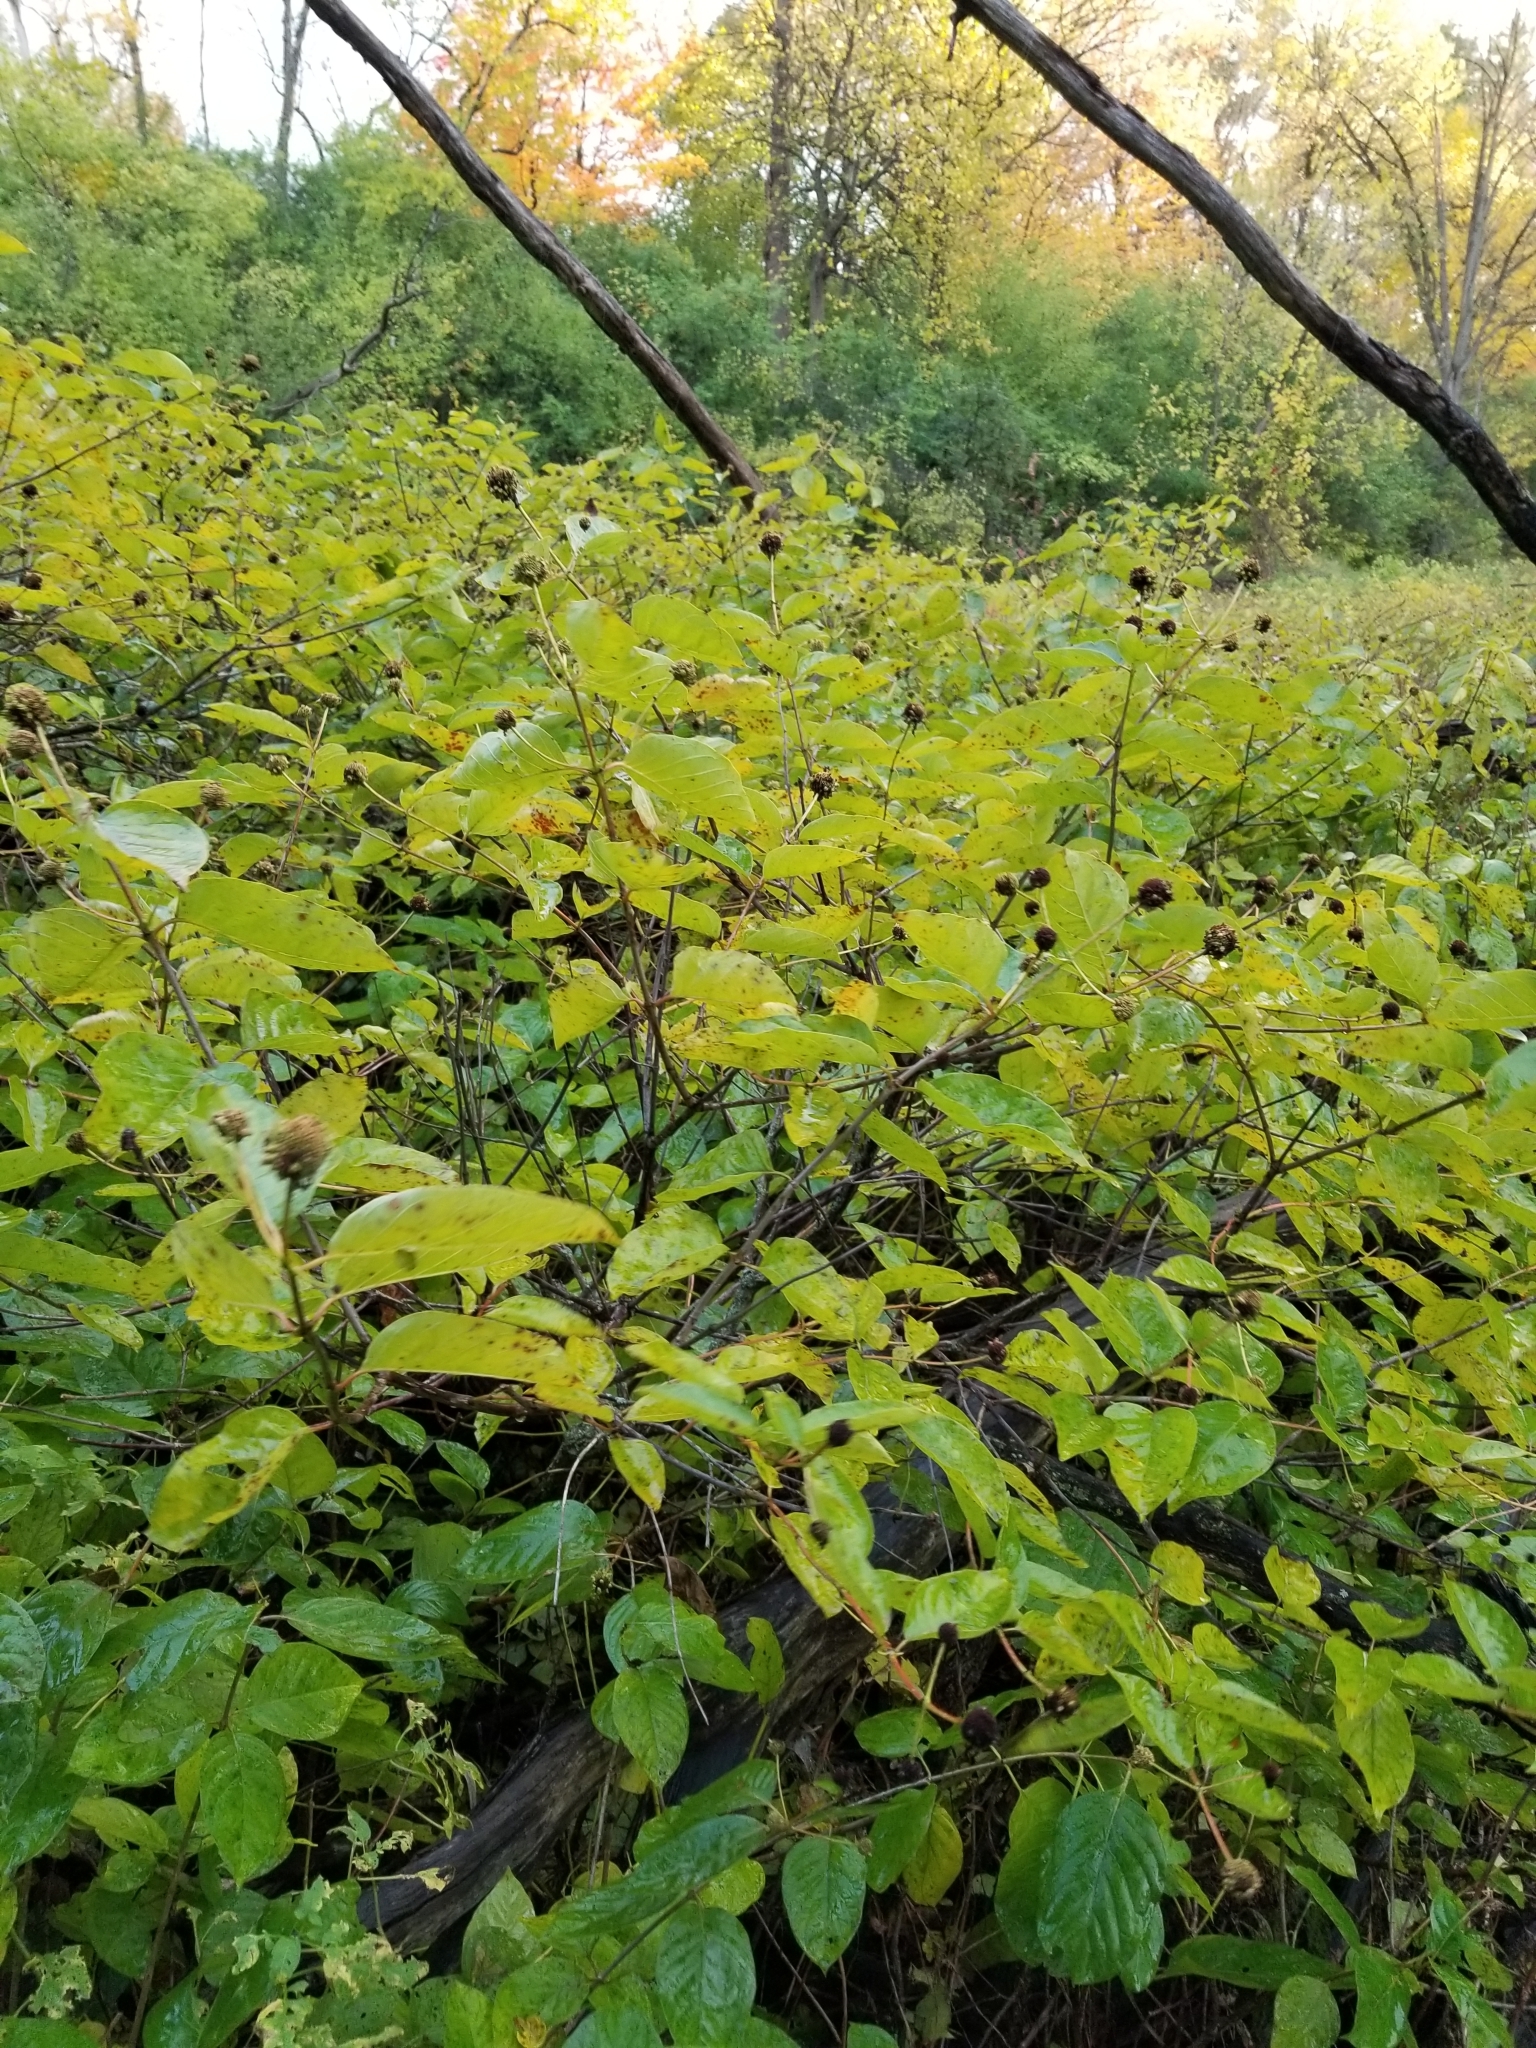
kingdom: Plantae
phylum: Tracheophyta
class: Magnoliopsida
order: Gentianales
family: Rubiaceae
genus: Cephalanthus
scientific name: Cephalanthus occidentalis
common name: Button-willow
